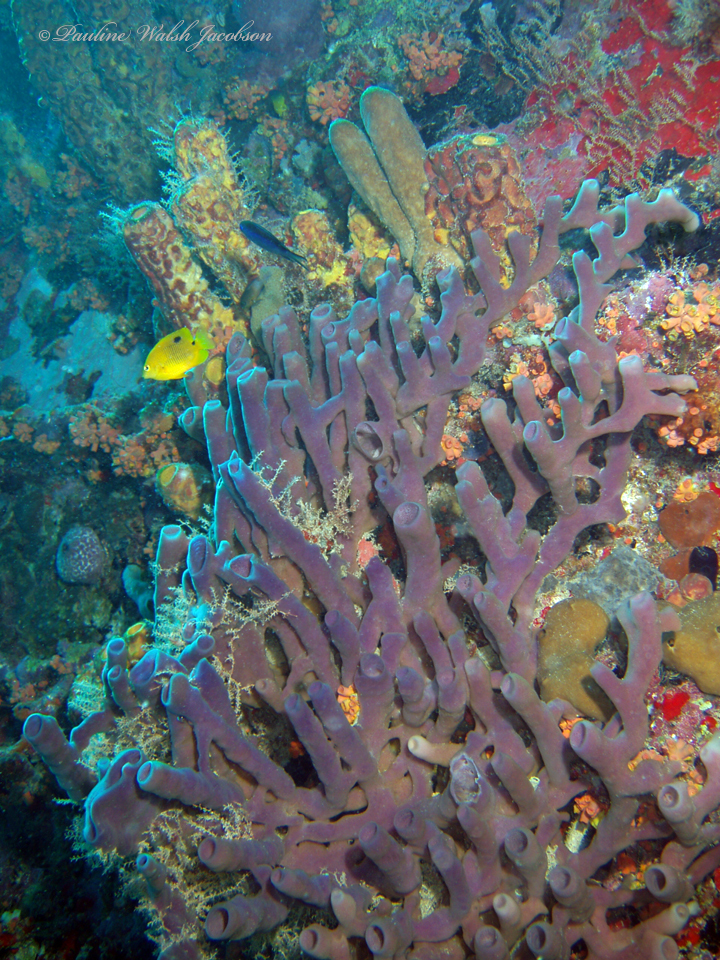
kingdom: Animalia
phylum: Porifera
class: Demospongiae
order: Haplosclerida
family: Callyspongiidae
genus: Callyspongia
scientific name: Callyspongia fallax
